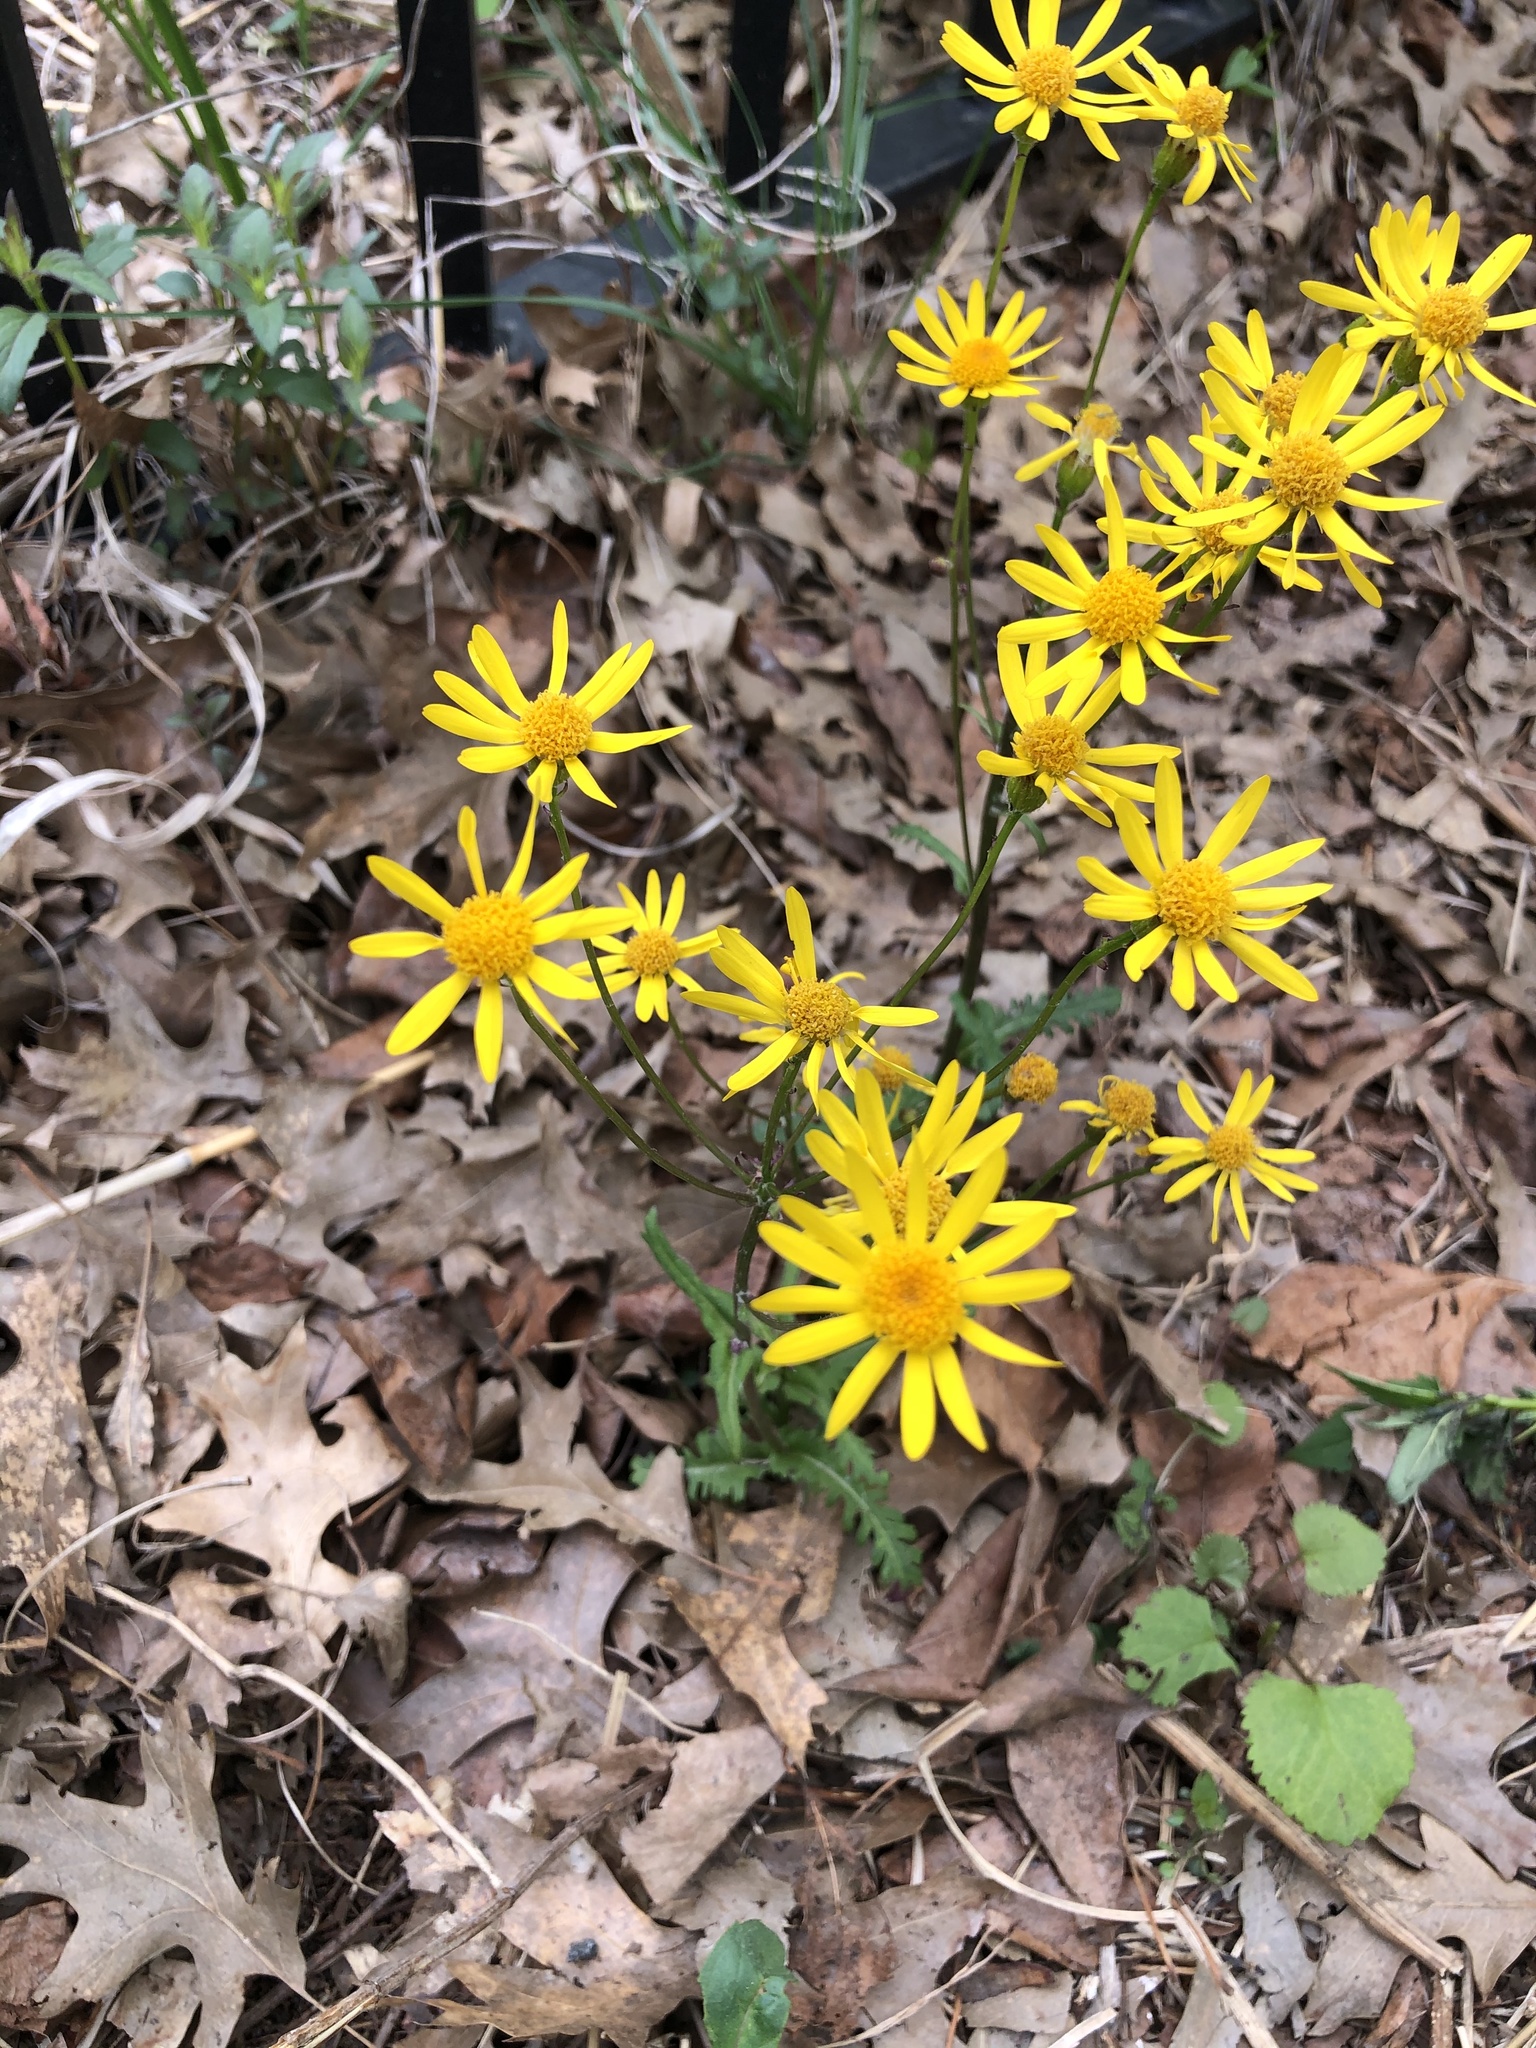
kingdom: Plantae
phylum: Tracheophyta
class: Magnoliopsida
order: Asterales
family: Asteraceae
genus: Packera
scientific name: Packera aurea
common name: Golden groundsel
